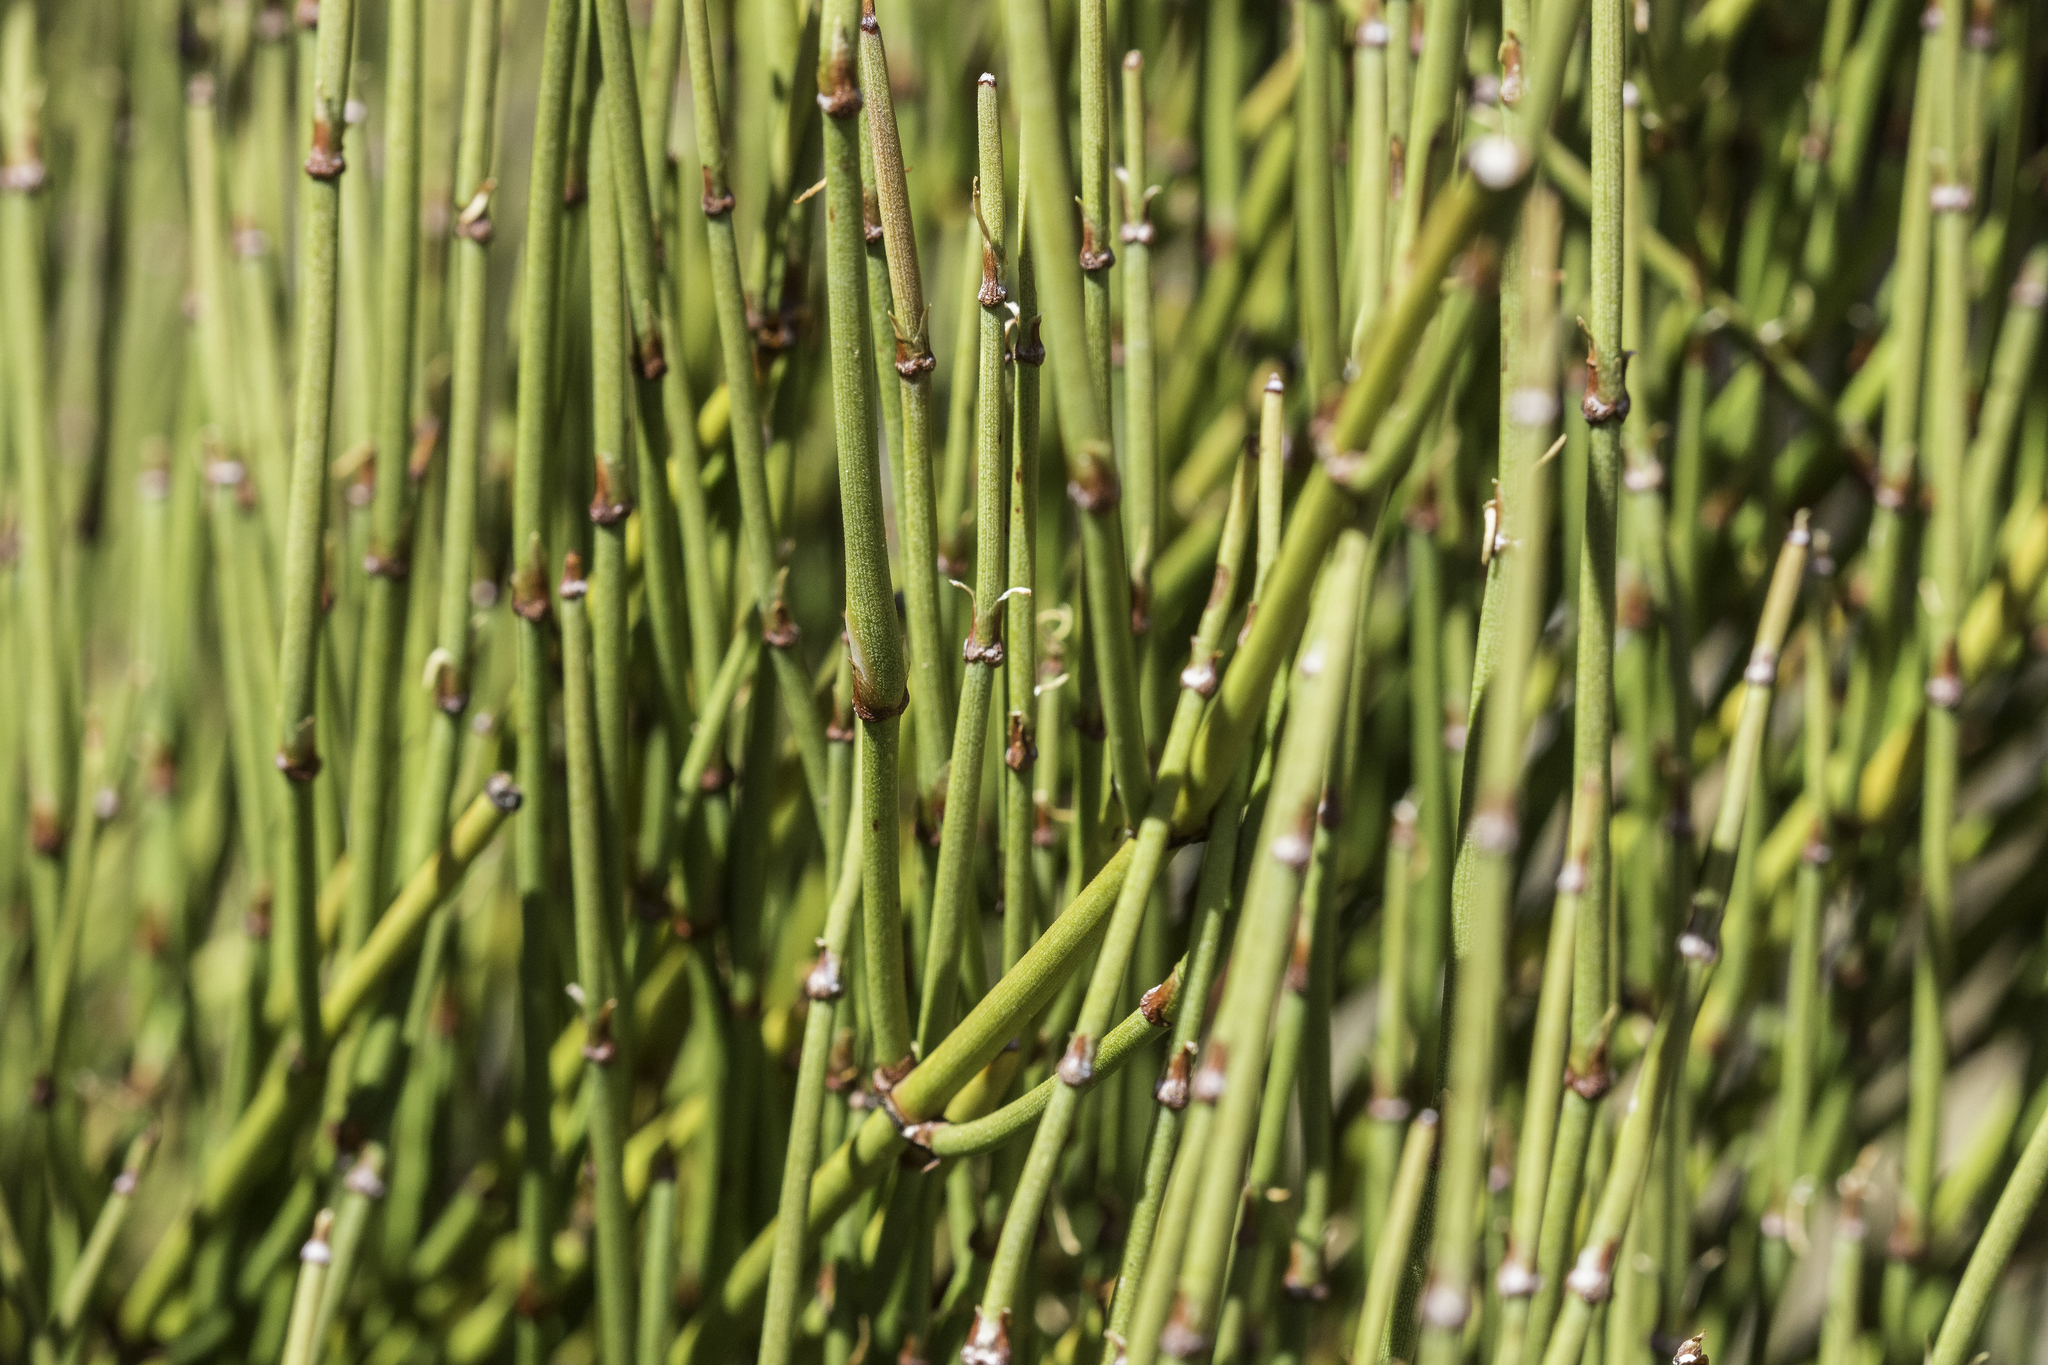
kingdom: Plantae
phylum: Tracheophyta
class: Gnetopsida
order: Ephedrales
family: Ephedraceae
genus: Ephedra
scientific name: Ephedra viridis
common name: Green ephedra
